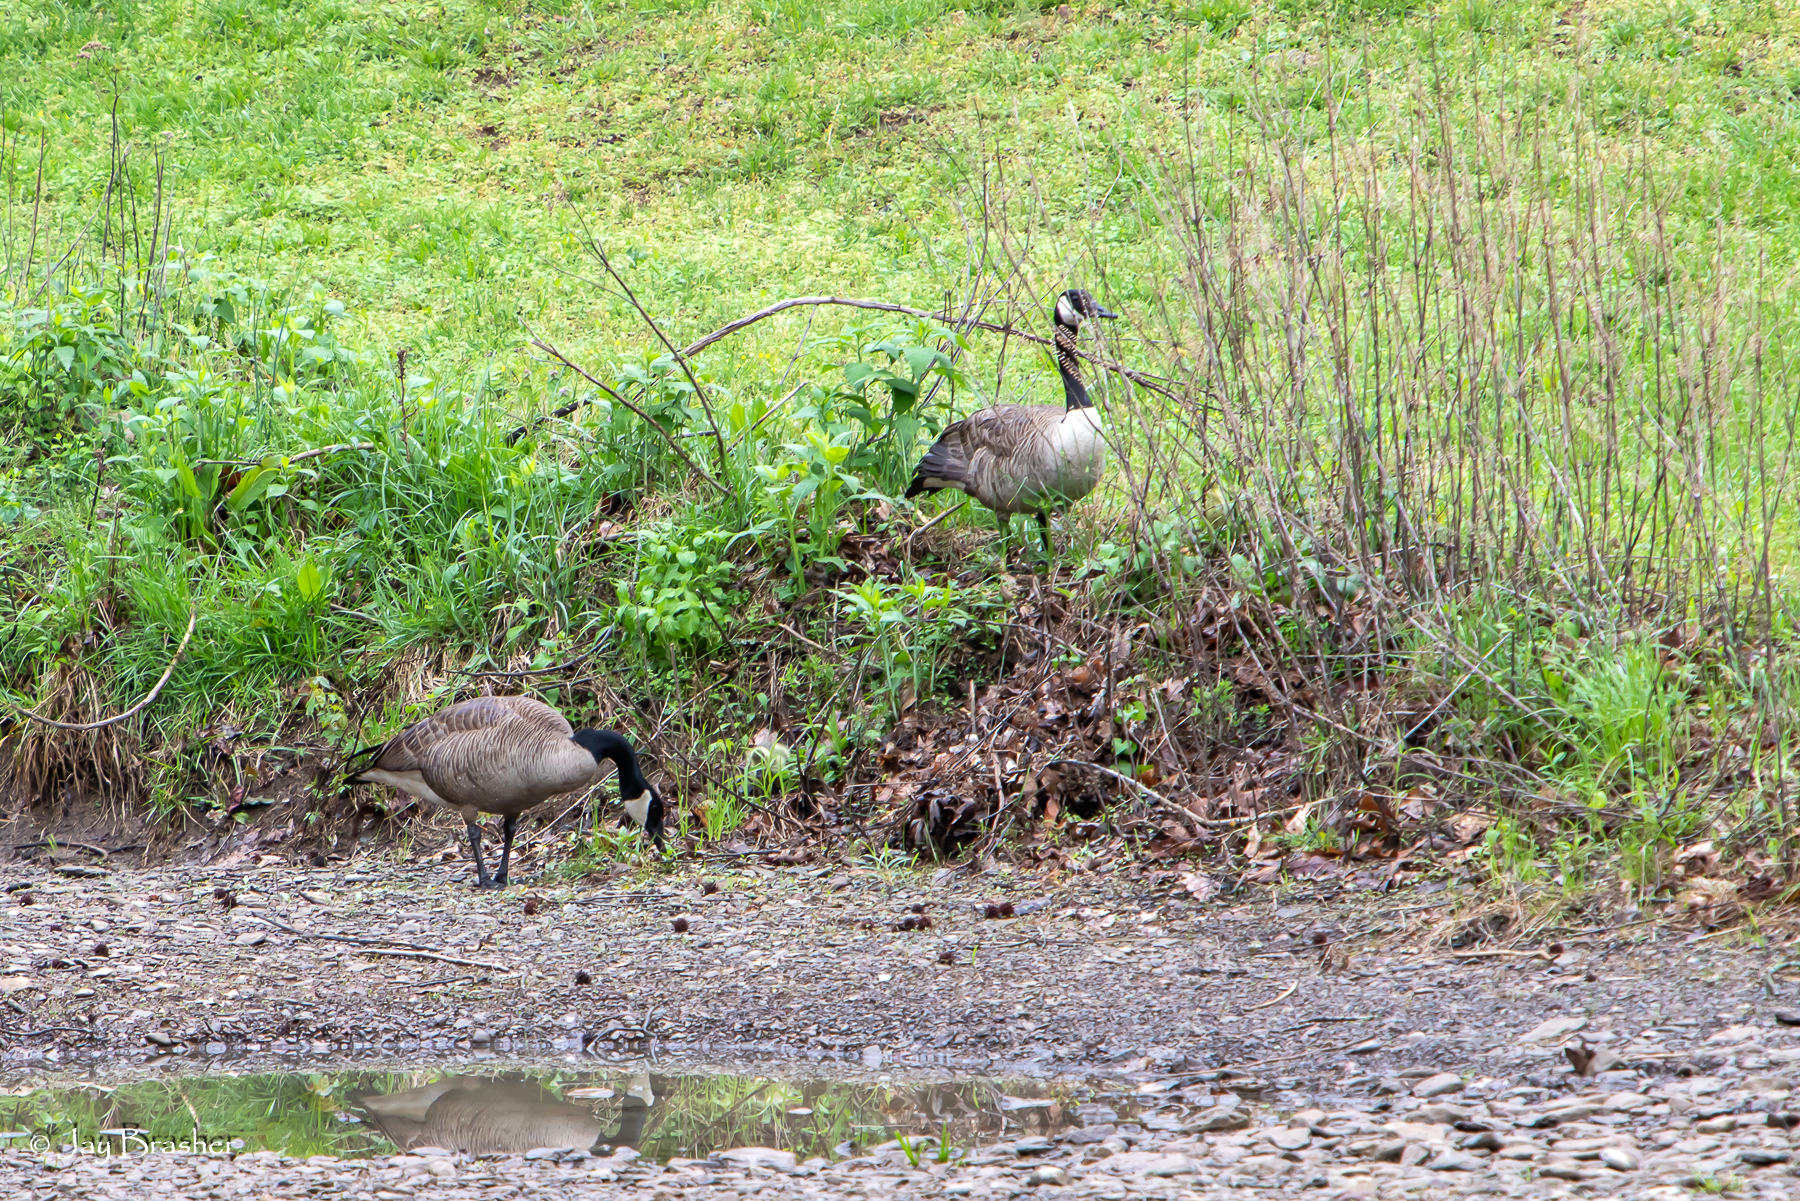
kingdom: Animalia
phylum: Chordata
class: Aves
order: Anseriformes
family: Anatidae
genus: Branta
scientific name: Branta canadensis
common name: Canada goose
